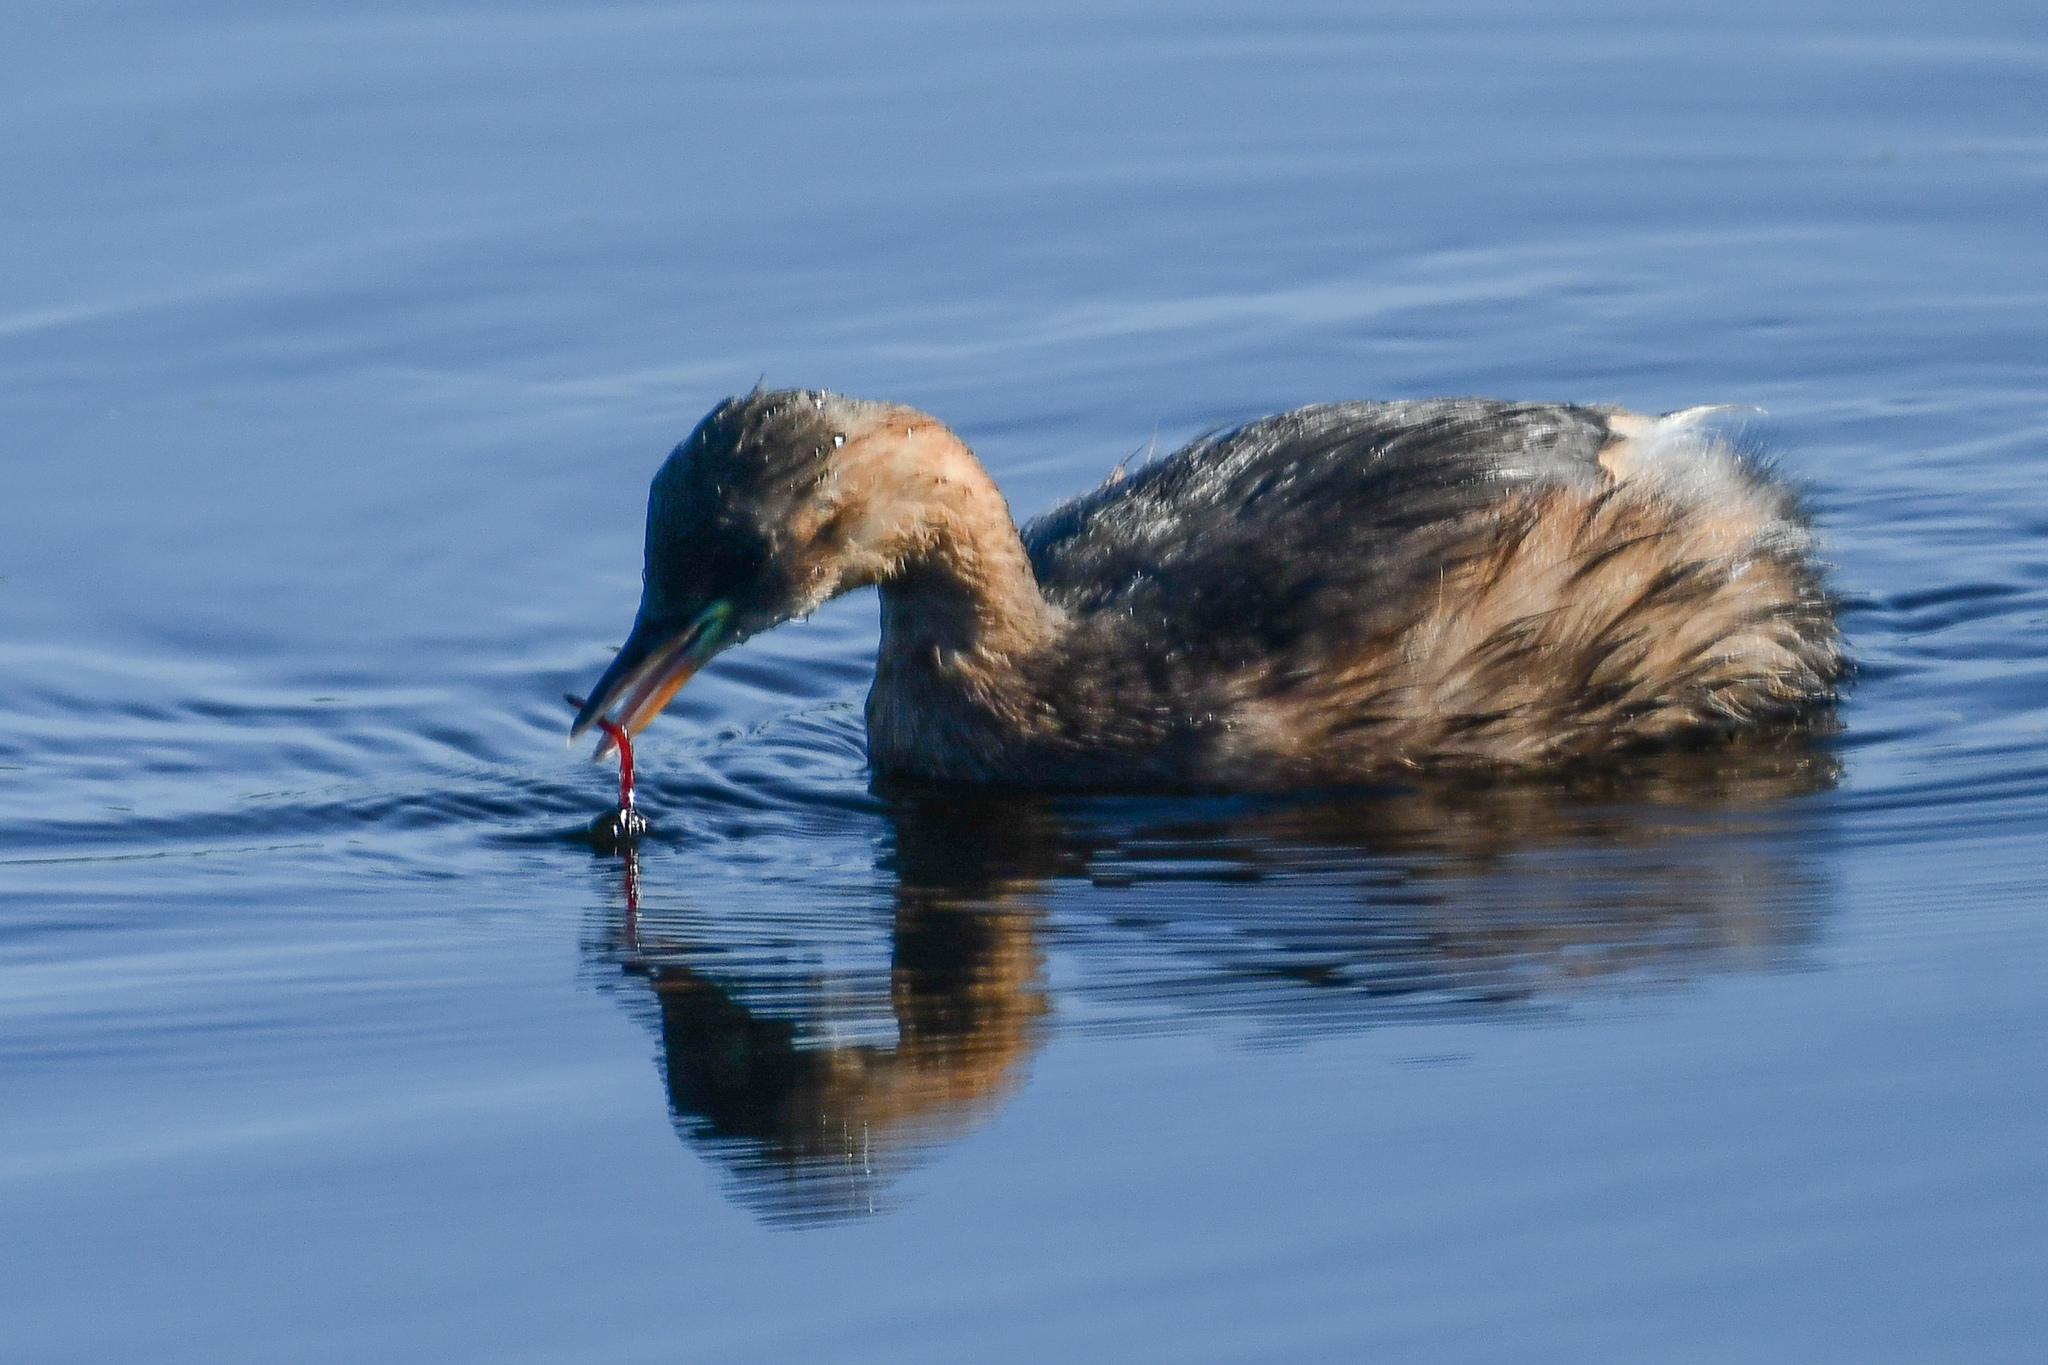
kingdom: Animalia
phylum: Chordata
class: Aves
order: Podicipediformes
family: Podicipedidae
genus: Tachybaptus
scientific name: Tachybaptus ruficollis
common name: Little grebe
